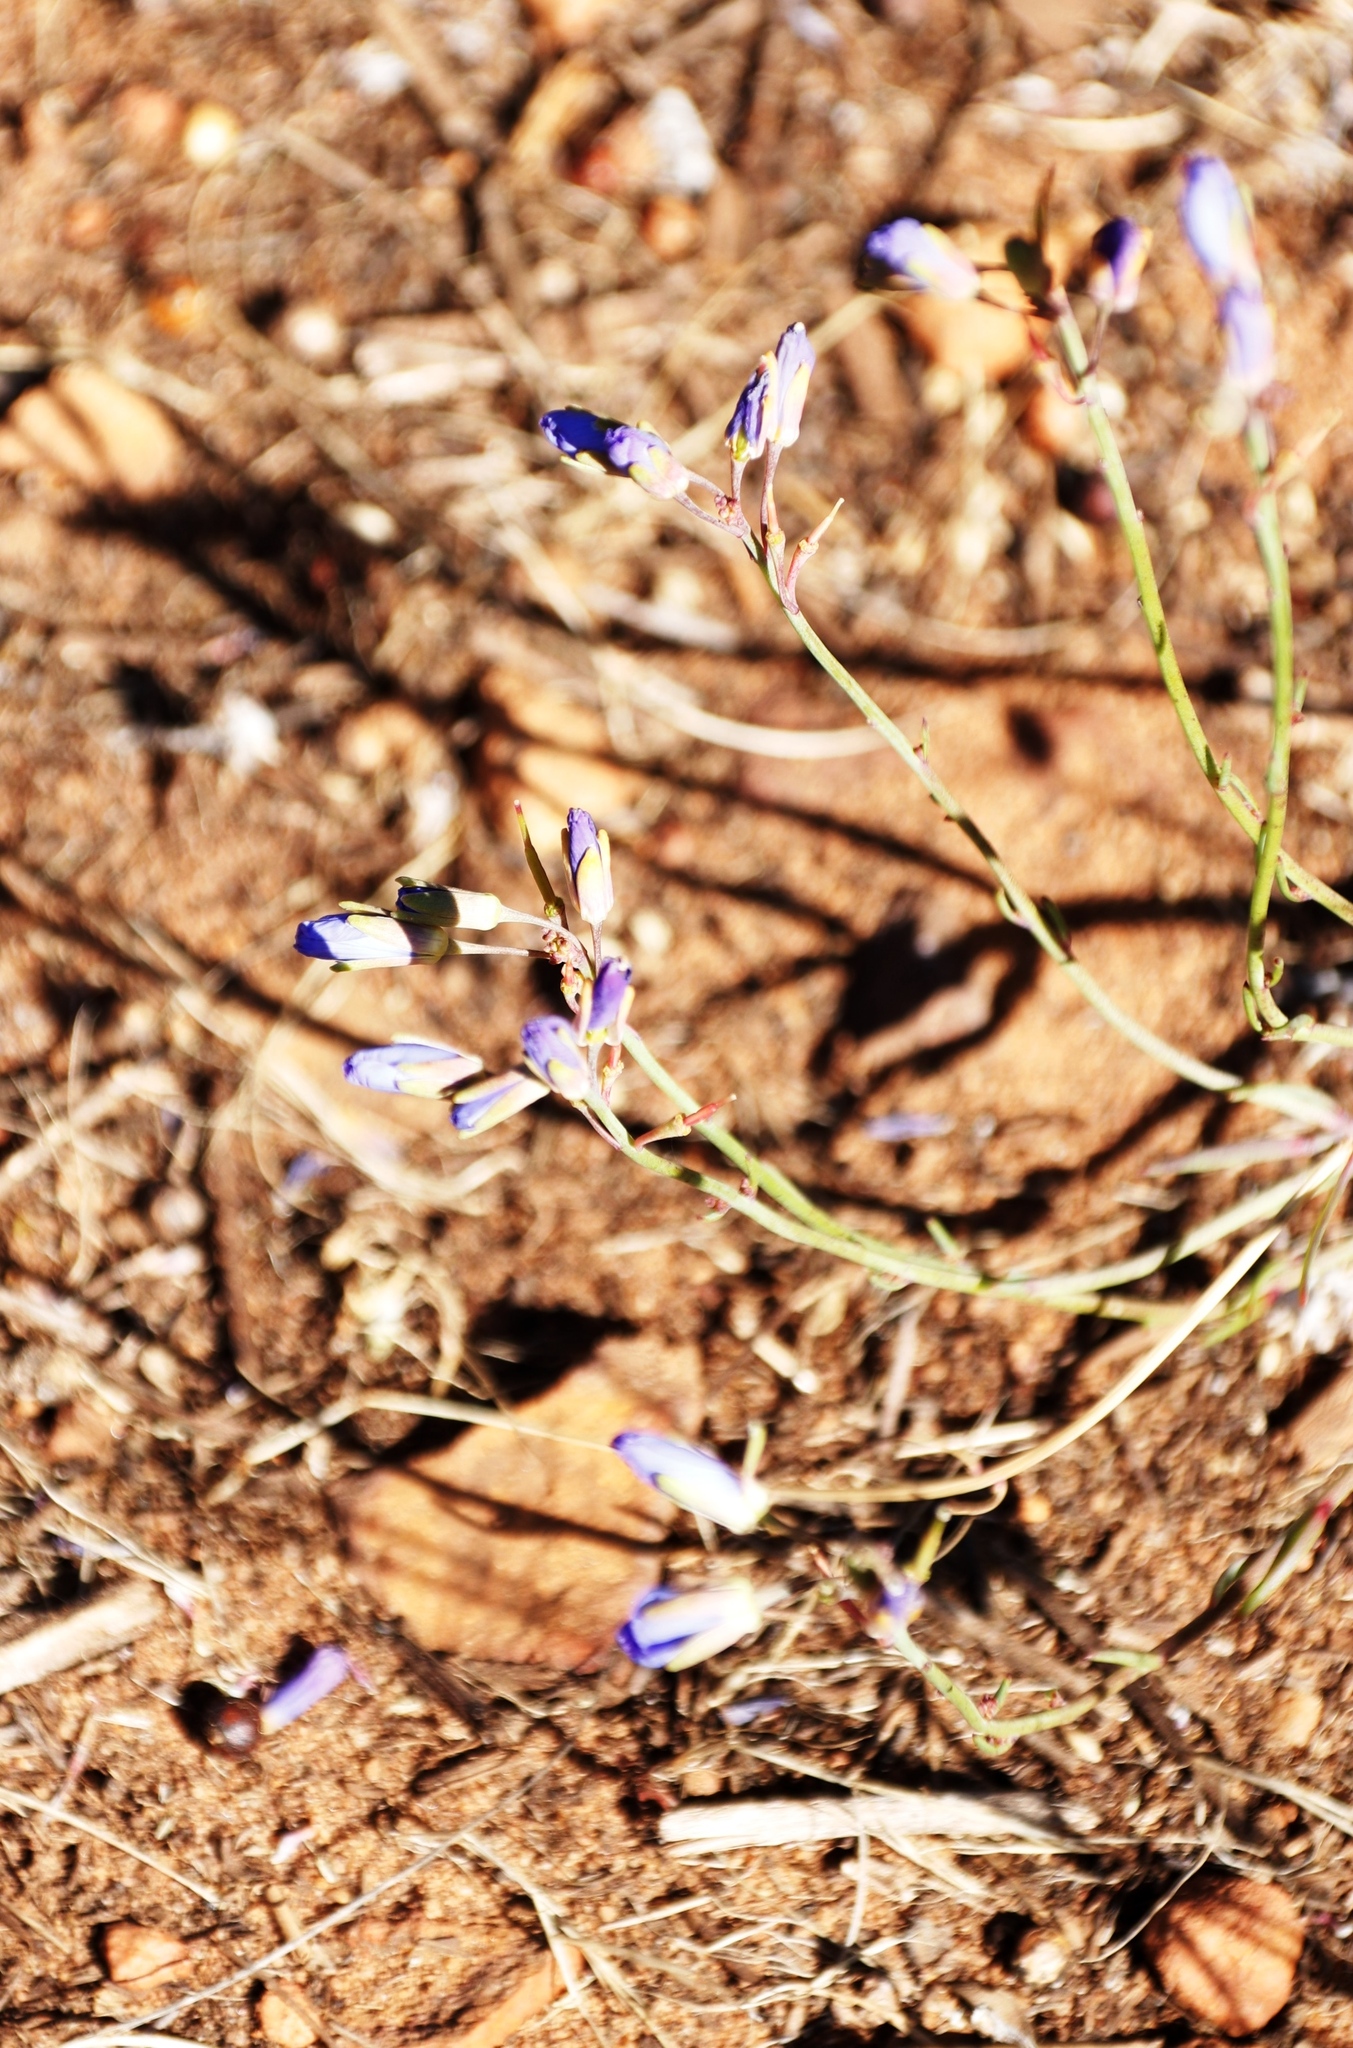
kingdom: Plantae
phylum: Tracheophyta
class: Magnoliopsida
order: Brassicales
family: Brassicaceae
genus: Heliophila
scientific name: Heliophila linearis
